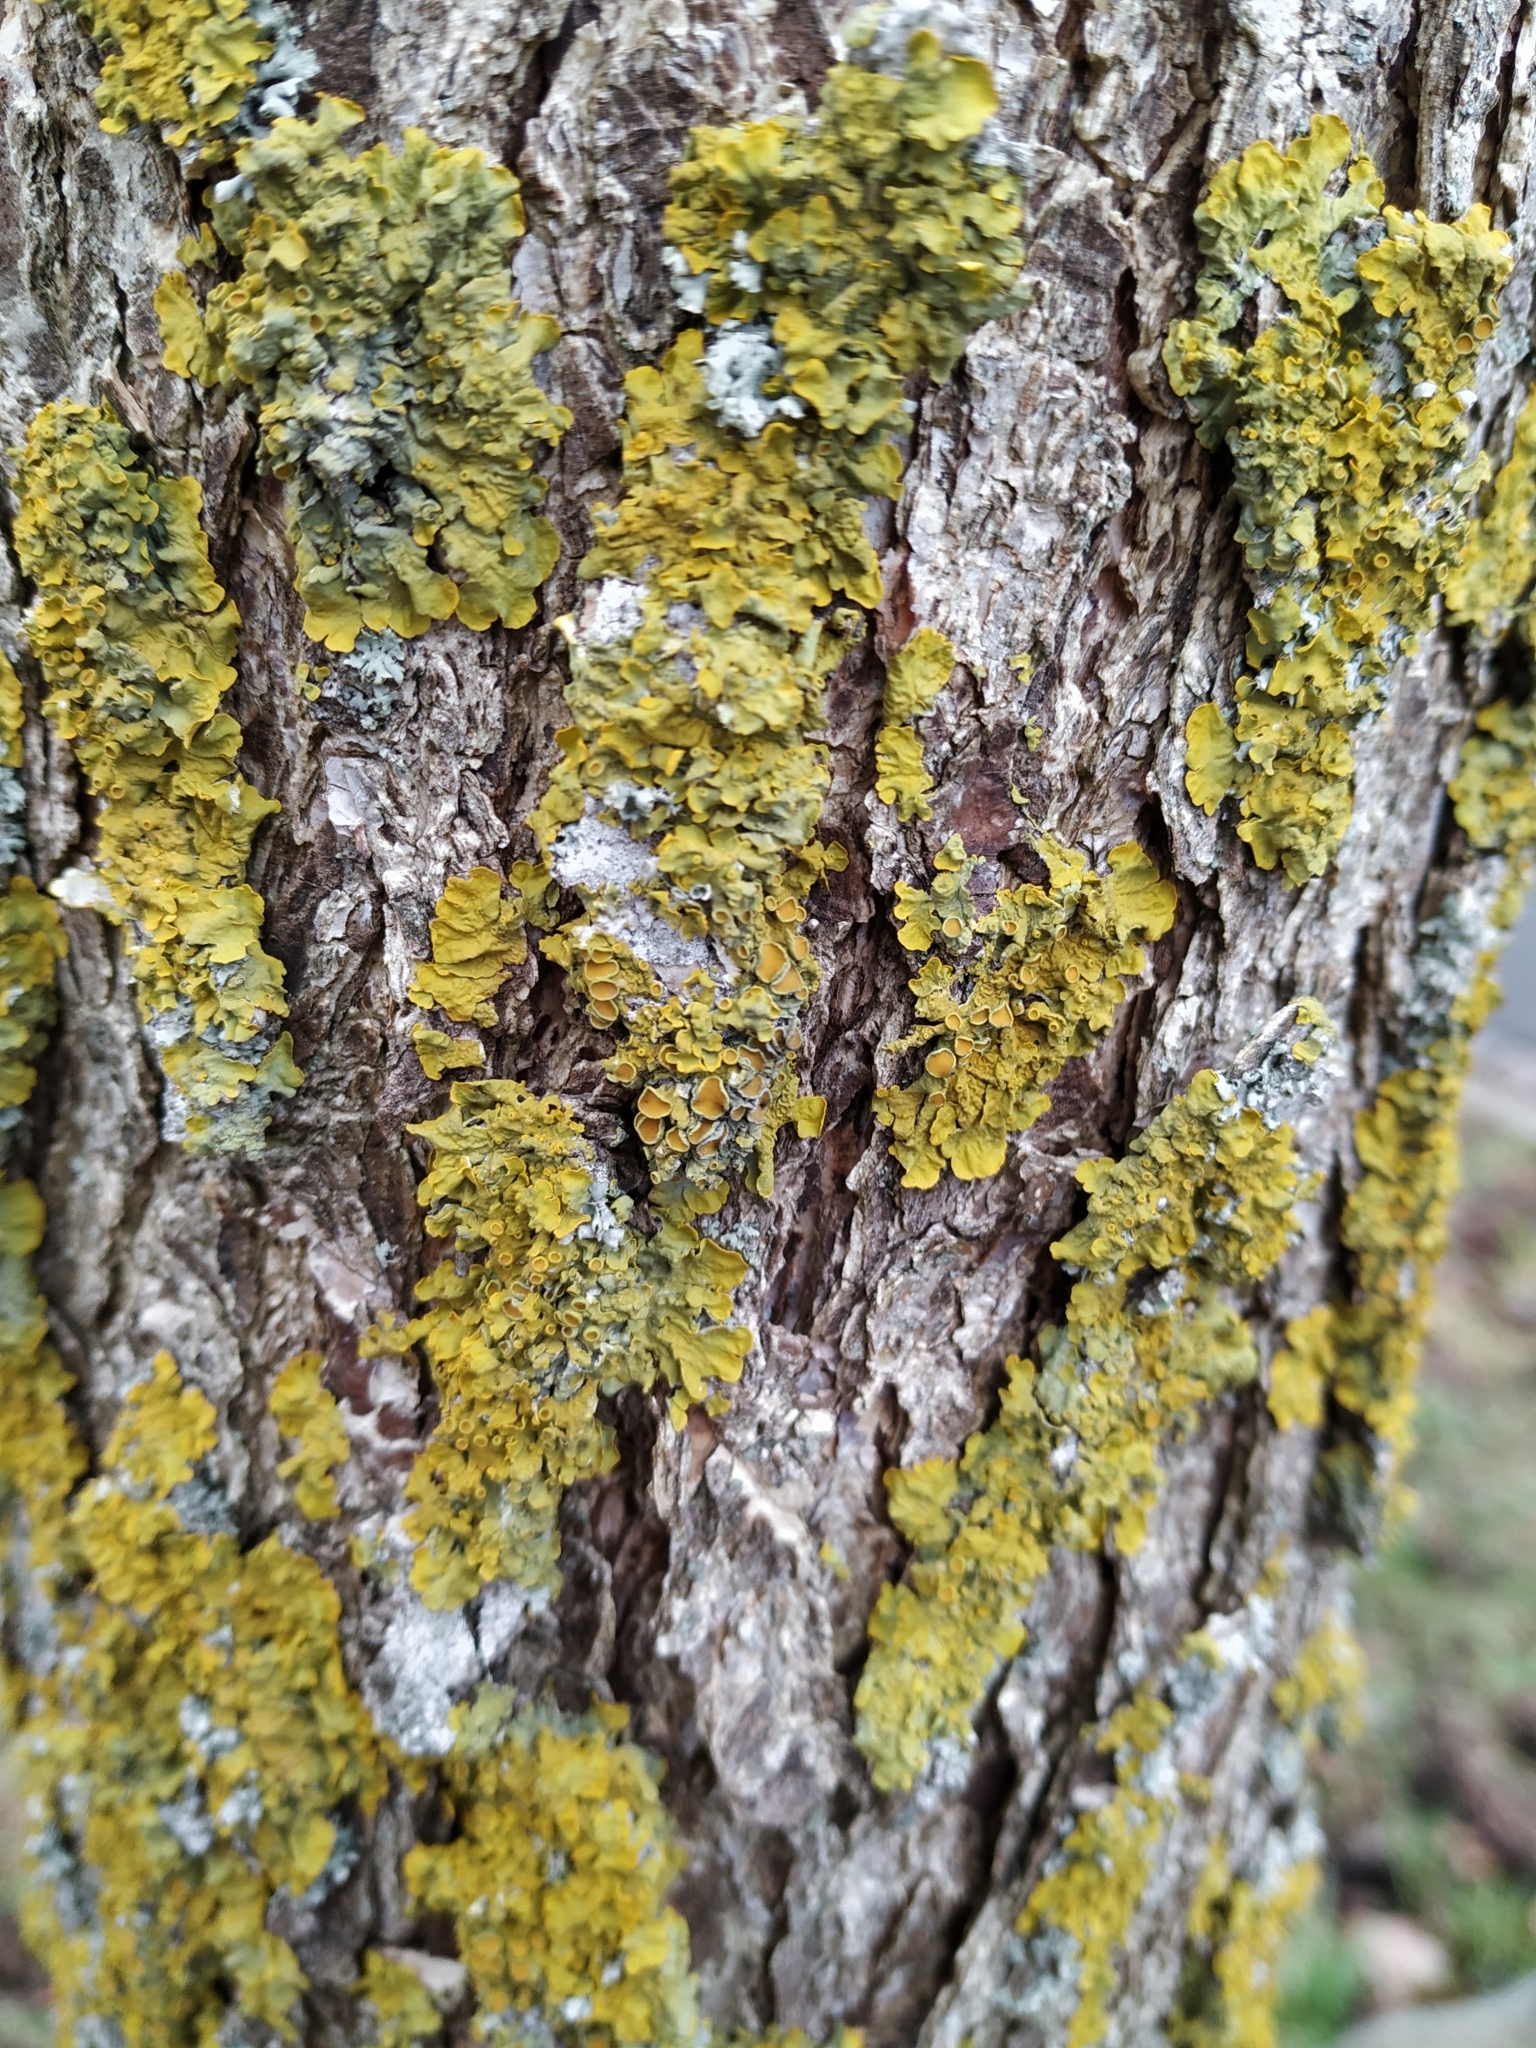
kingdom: Fungi
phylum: Ascomycota
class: Lecanoromycetes
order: Teloschistales
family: Teloschistaceae
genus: Xanthoria
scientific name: Xanthoria parietina
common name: Common orange lichen
